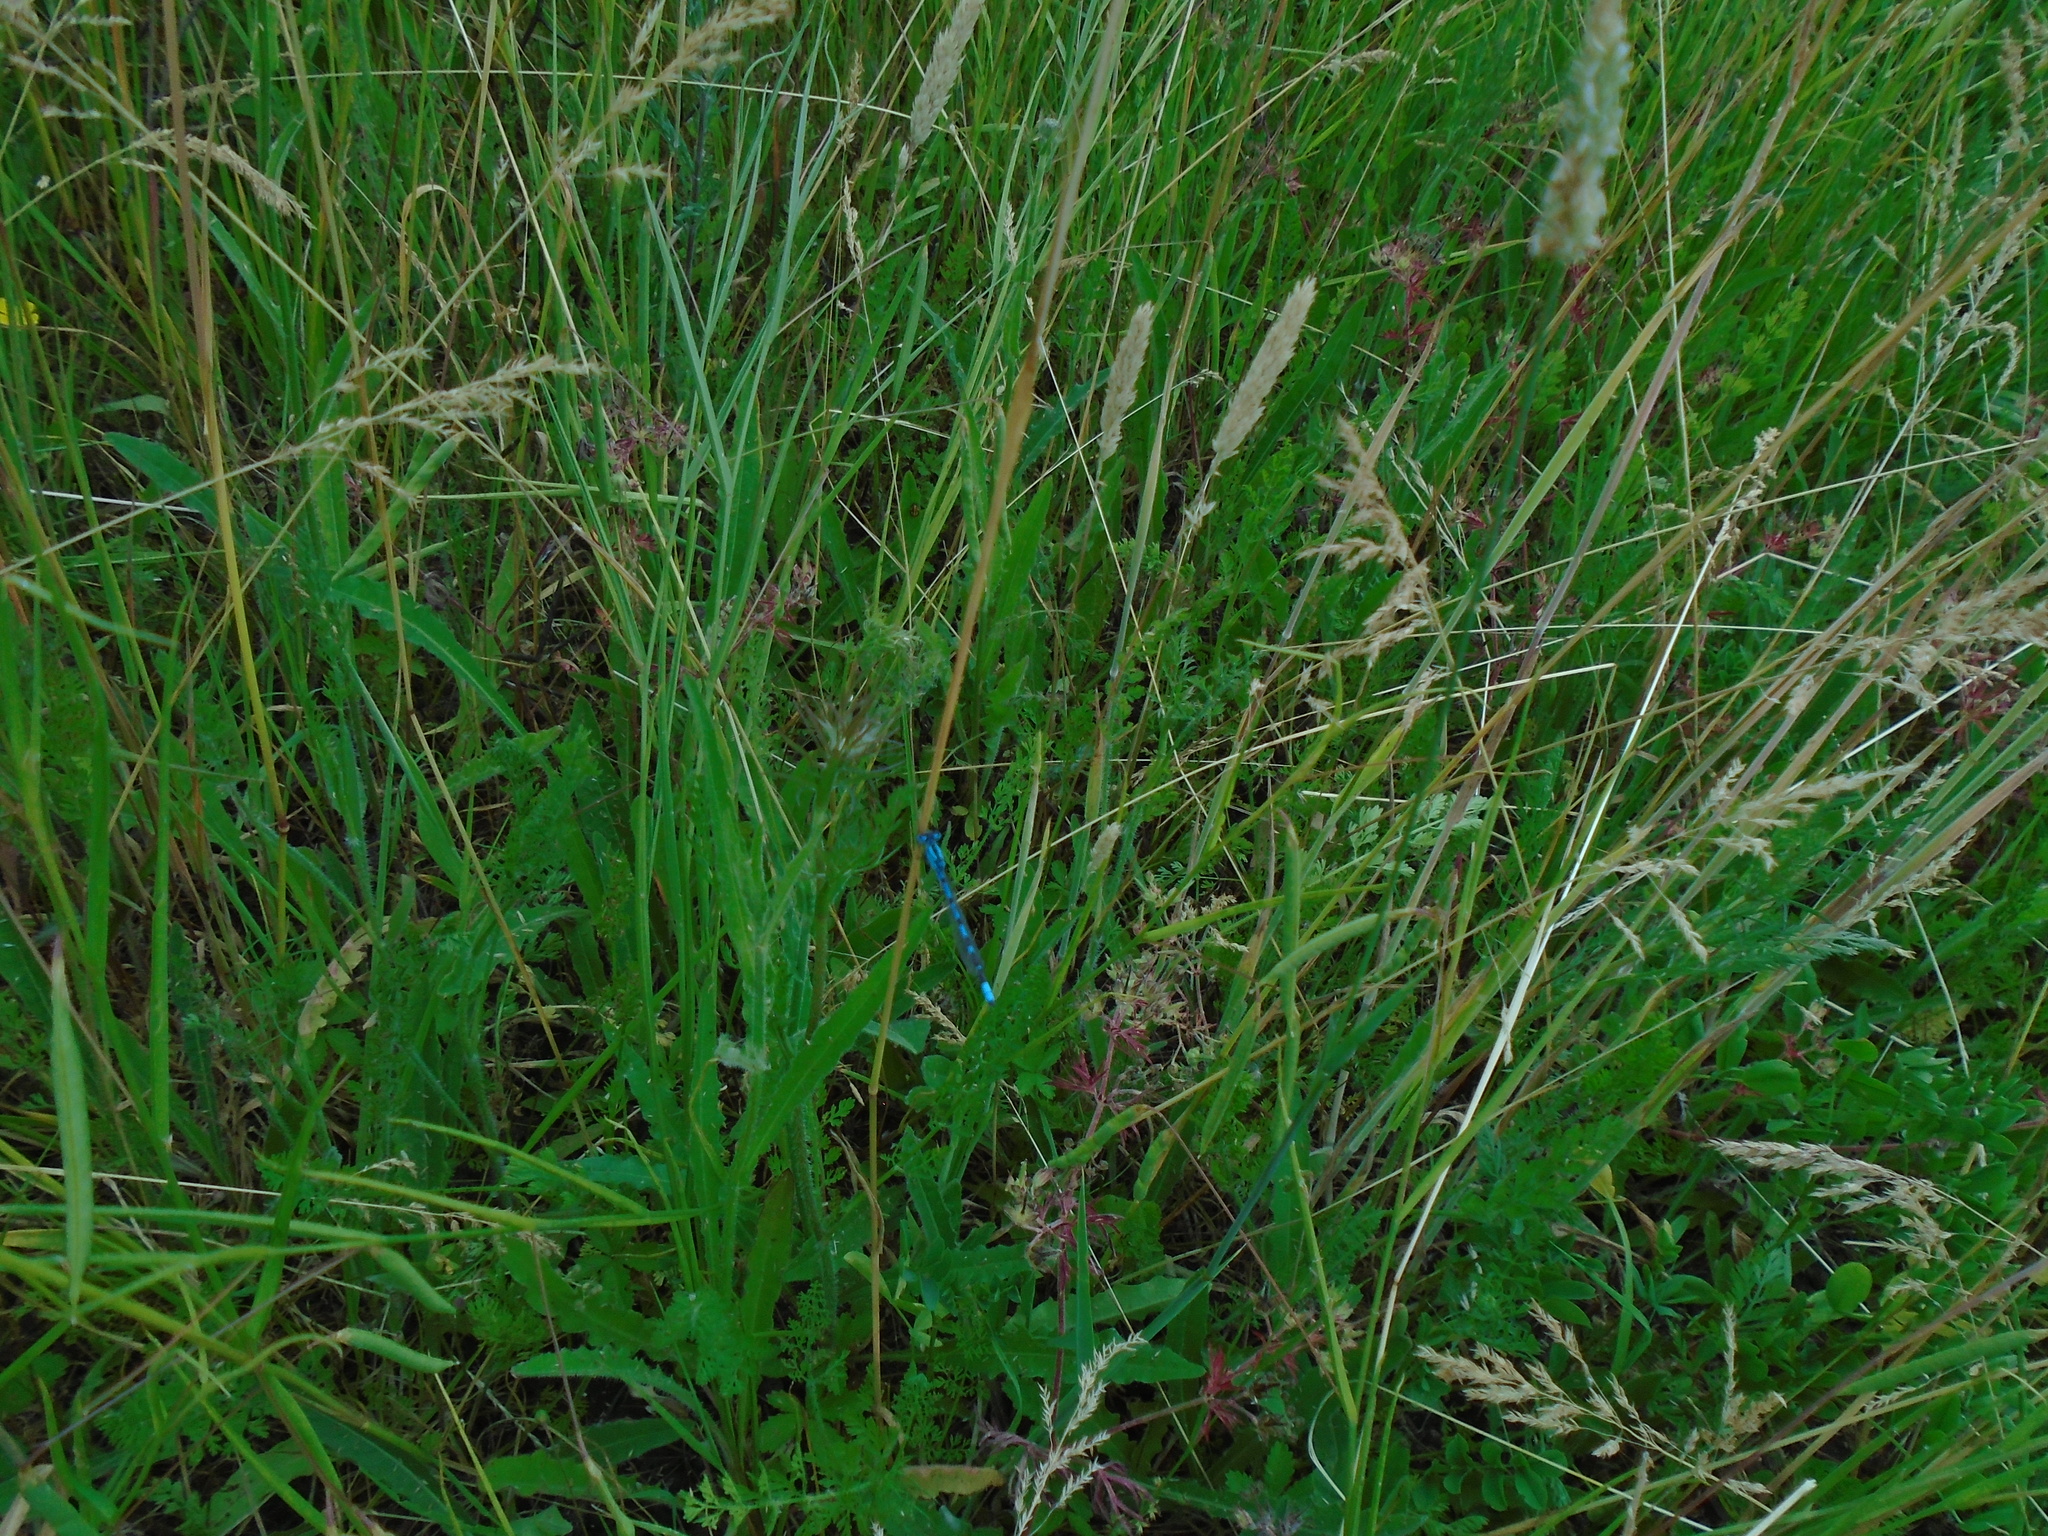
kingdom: Animalia
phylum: Arthropoda
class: Insecta
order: Odonata
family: Coenagrionidae
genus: Enallagma
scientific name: Enallagma cyathigerum
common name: Common blue damselfly
